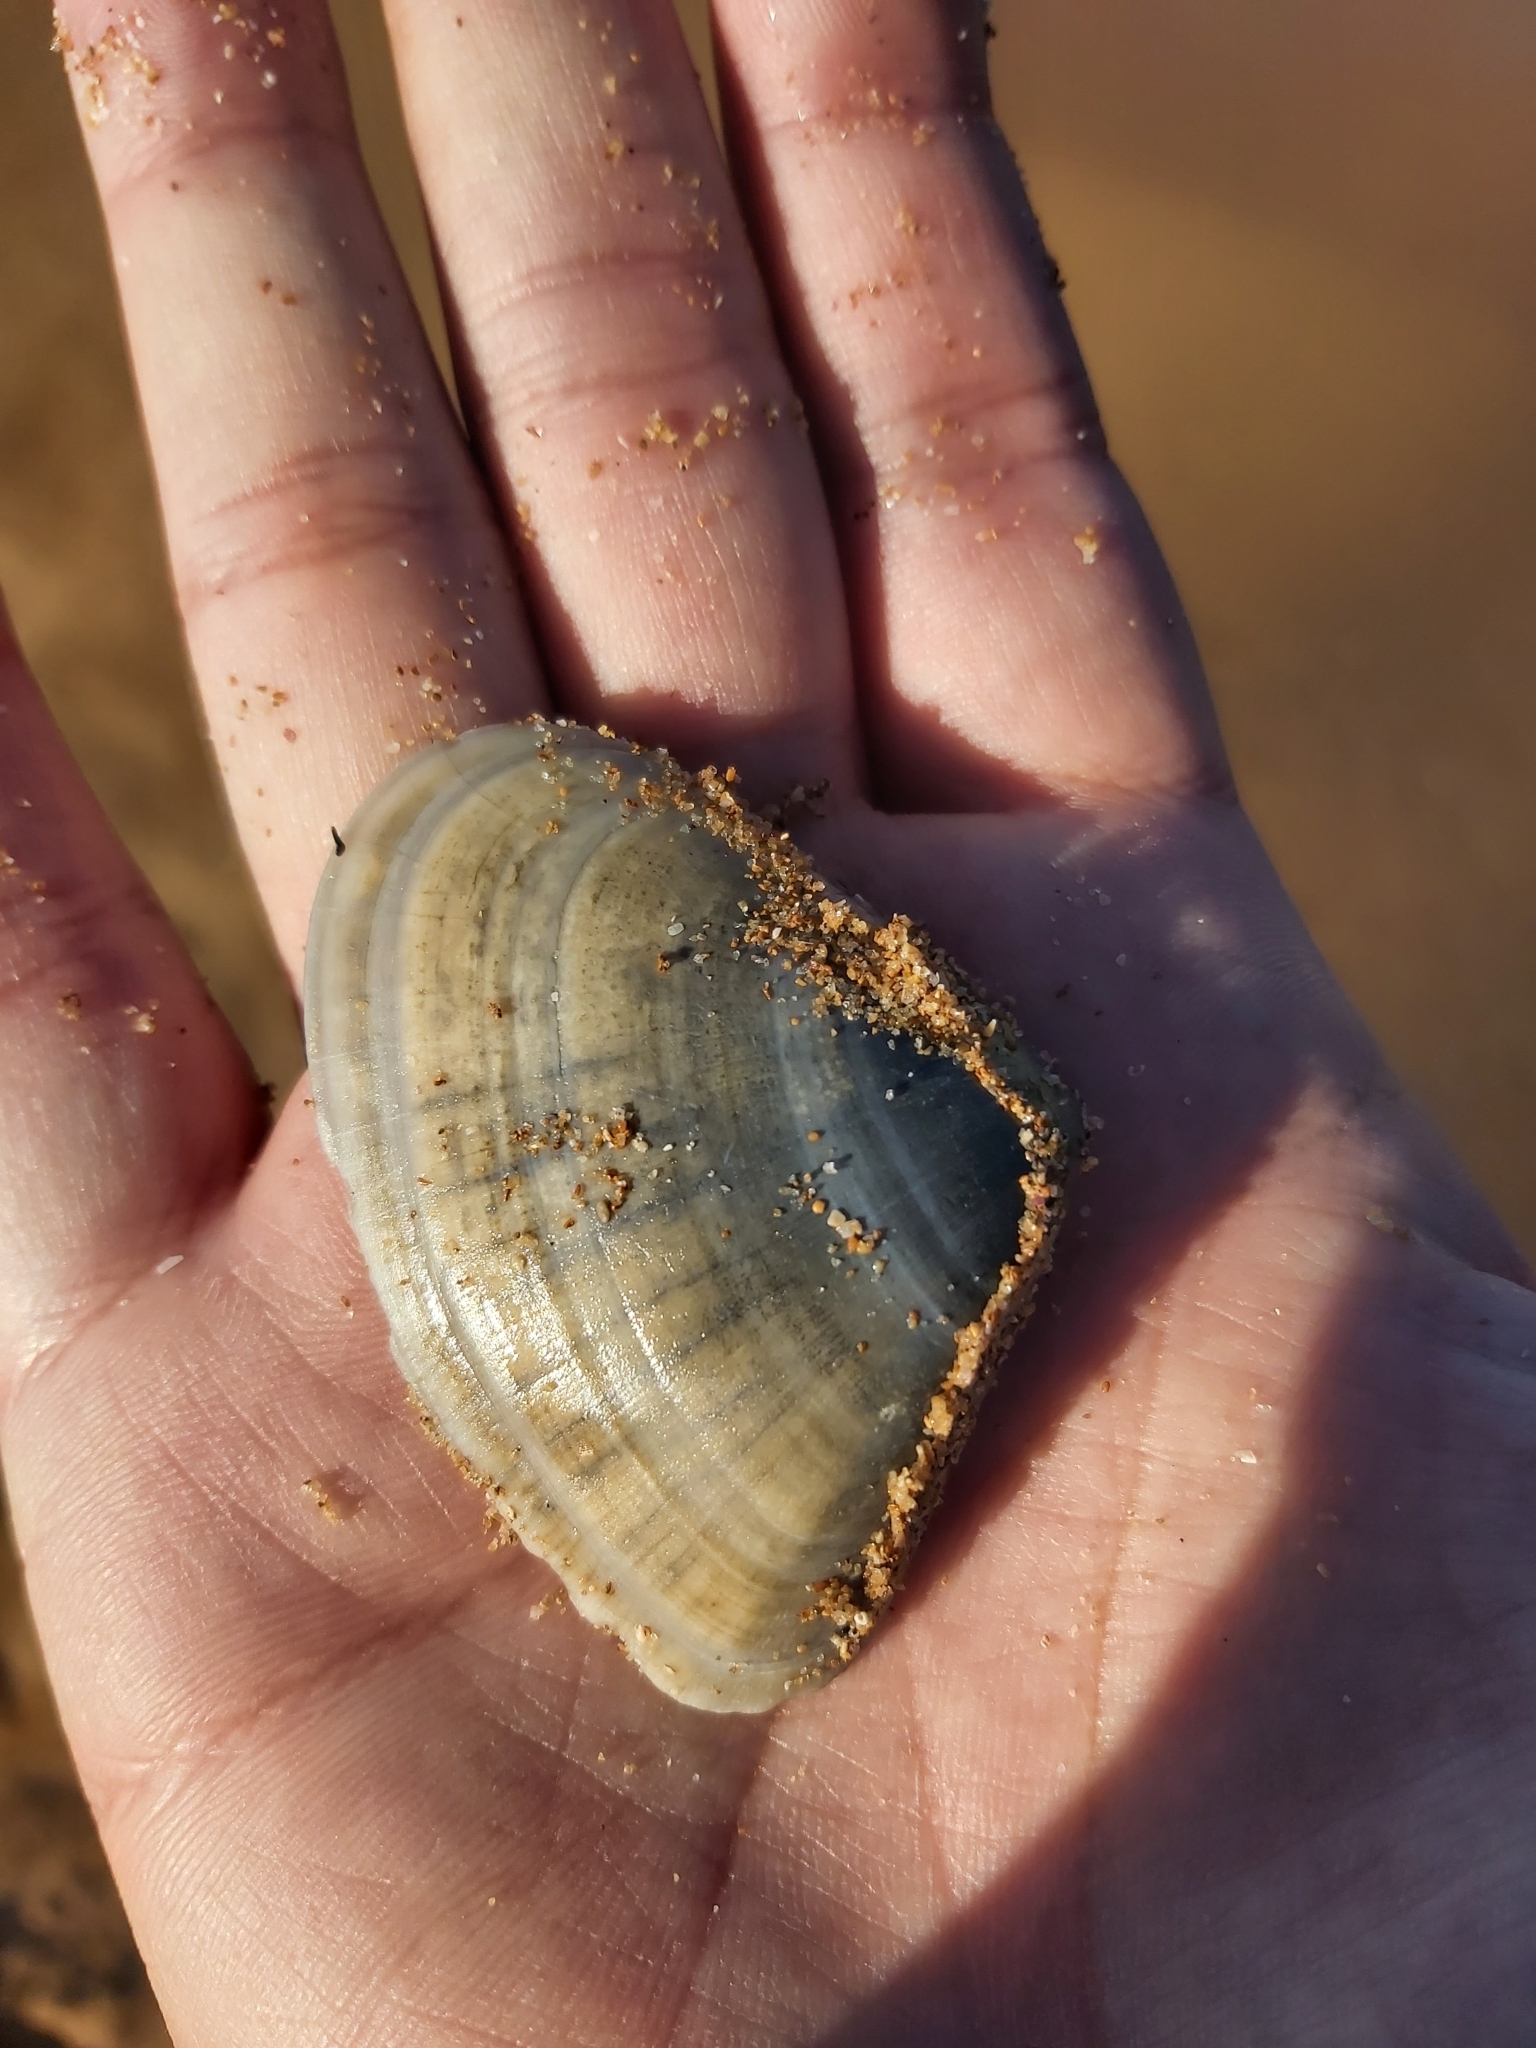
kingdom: Animalia
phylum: Mollusca
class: Bivalvia
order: Cardiida
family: Donacidae
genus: Latona
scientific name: Latona deltoides
